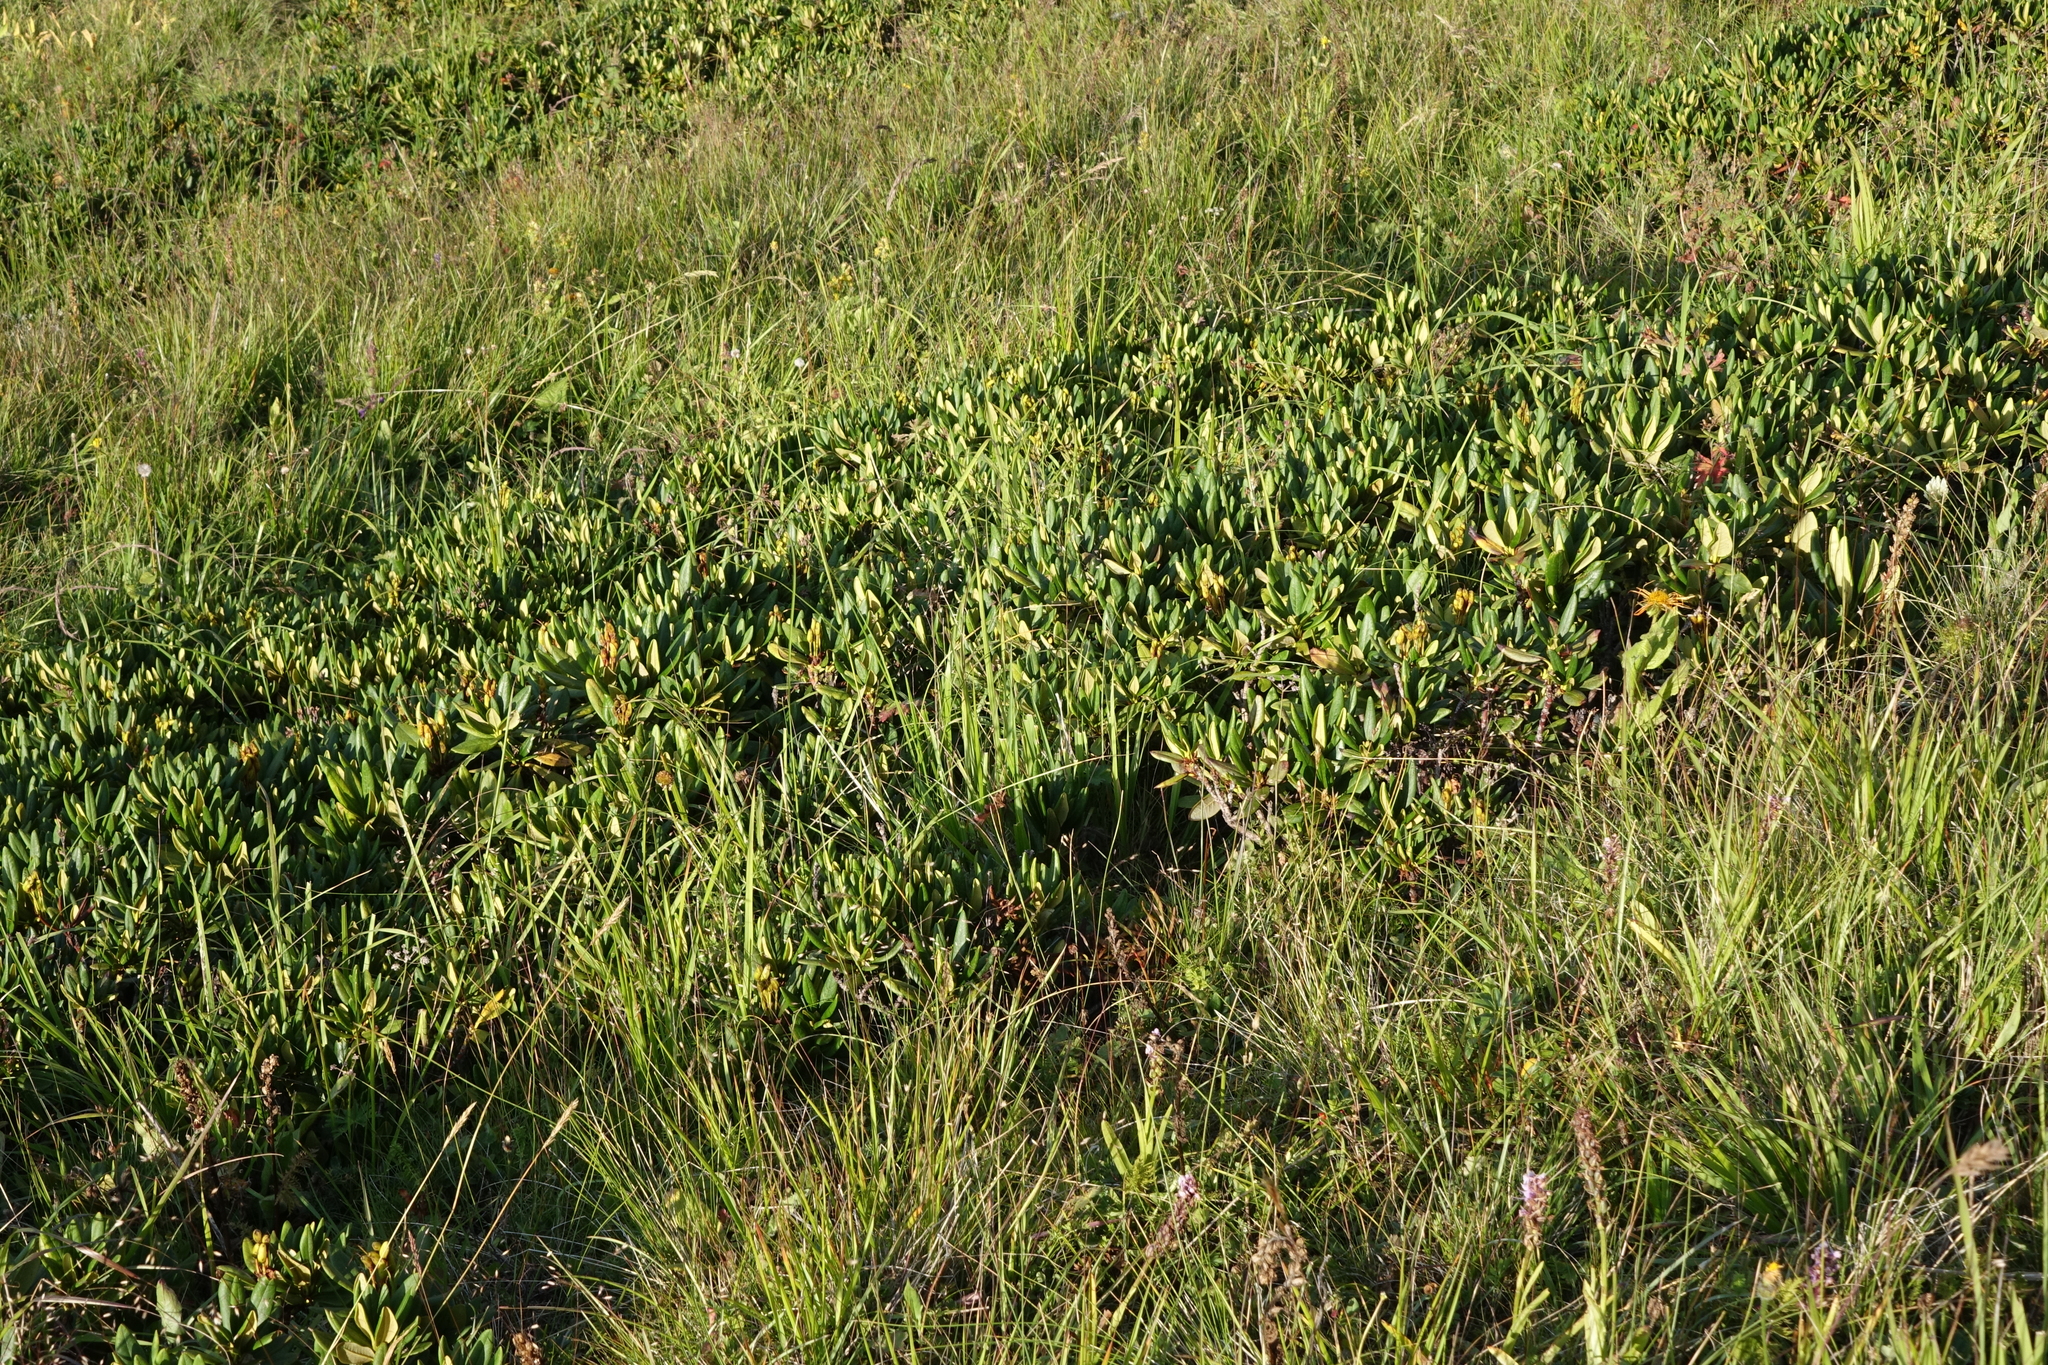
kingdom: Plantae
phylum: Tracheophyta
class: Magnoliopsida
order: Ericales
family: Ericaceae
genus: Rhododendron
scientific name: Rhododendron caucasicum
